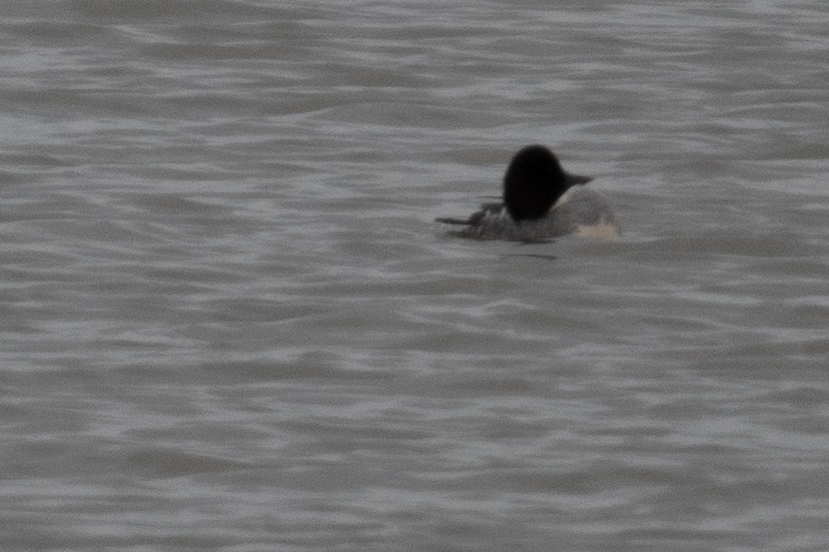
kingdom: Animalia
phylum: Chordata
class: Aves
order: Anseriformes
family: Anatidae
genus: Bucephala
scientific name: Bucephala clangula
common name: Common goldeneye
